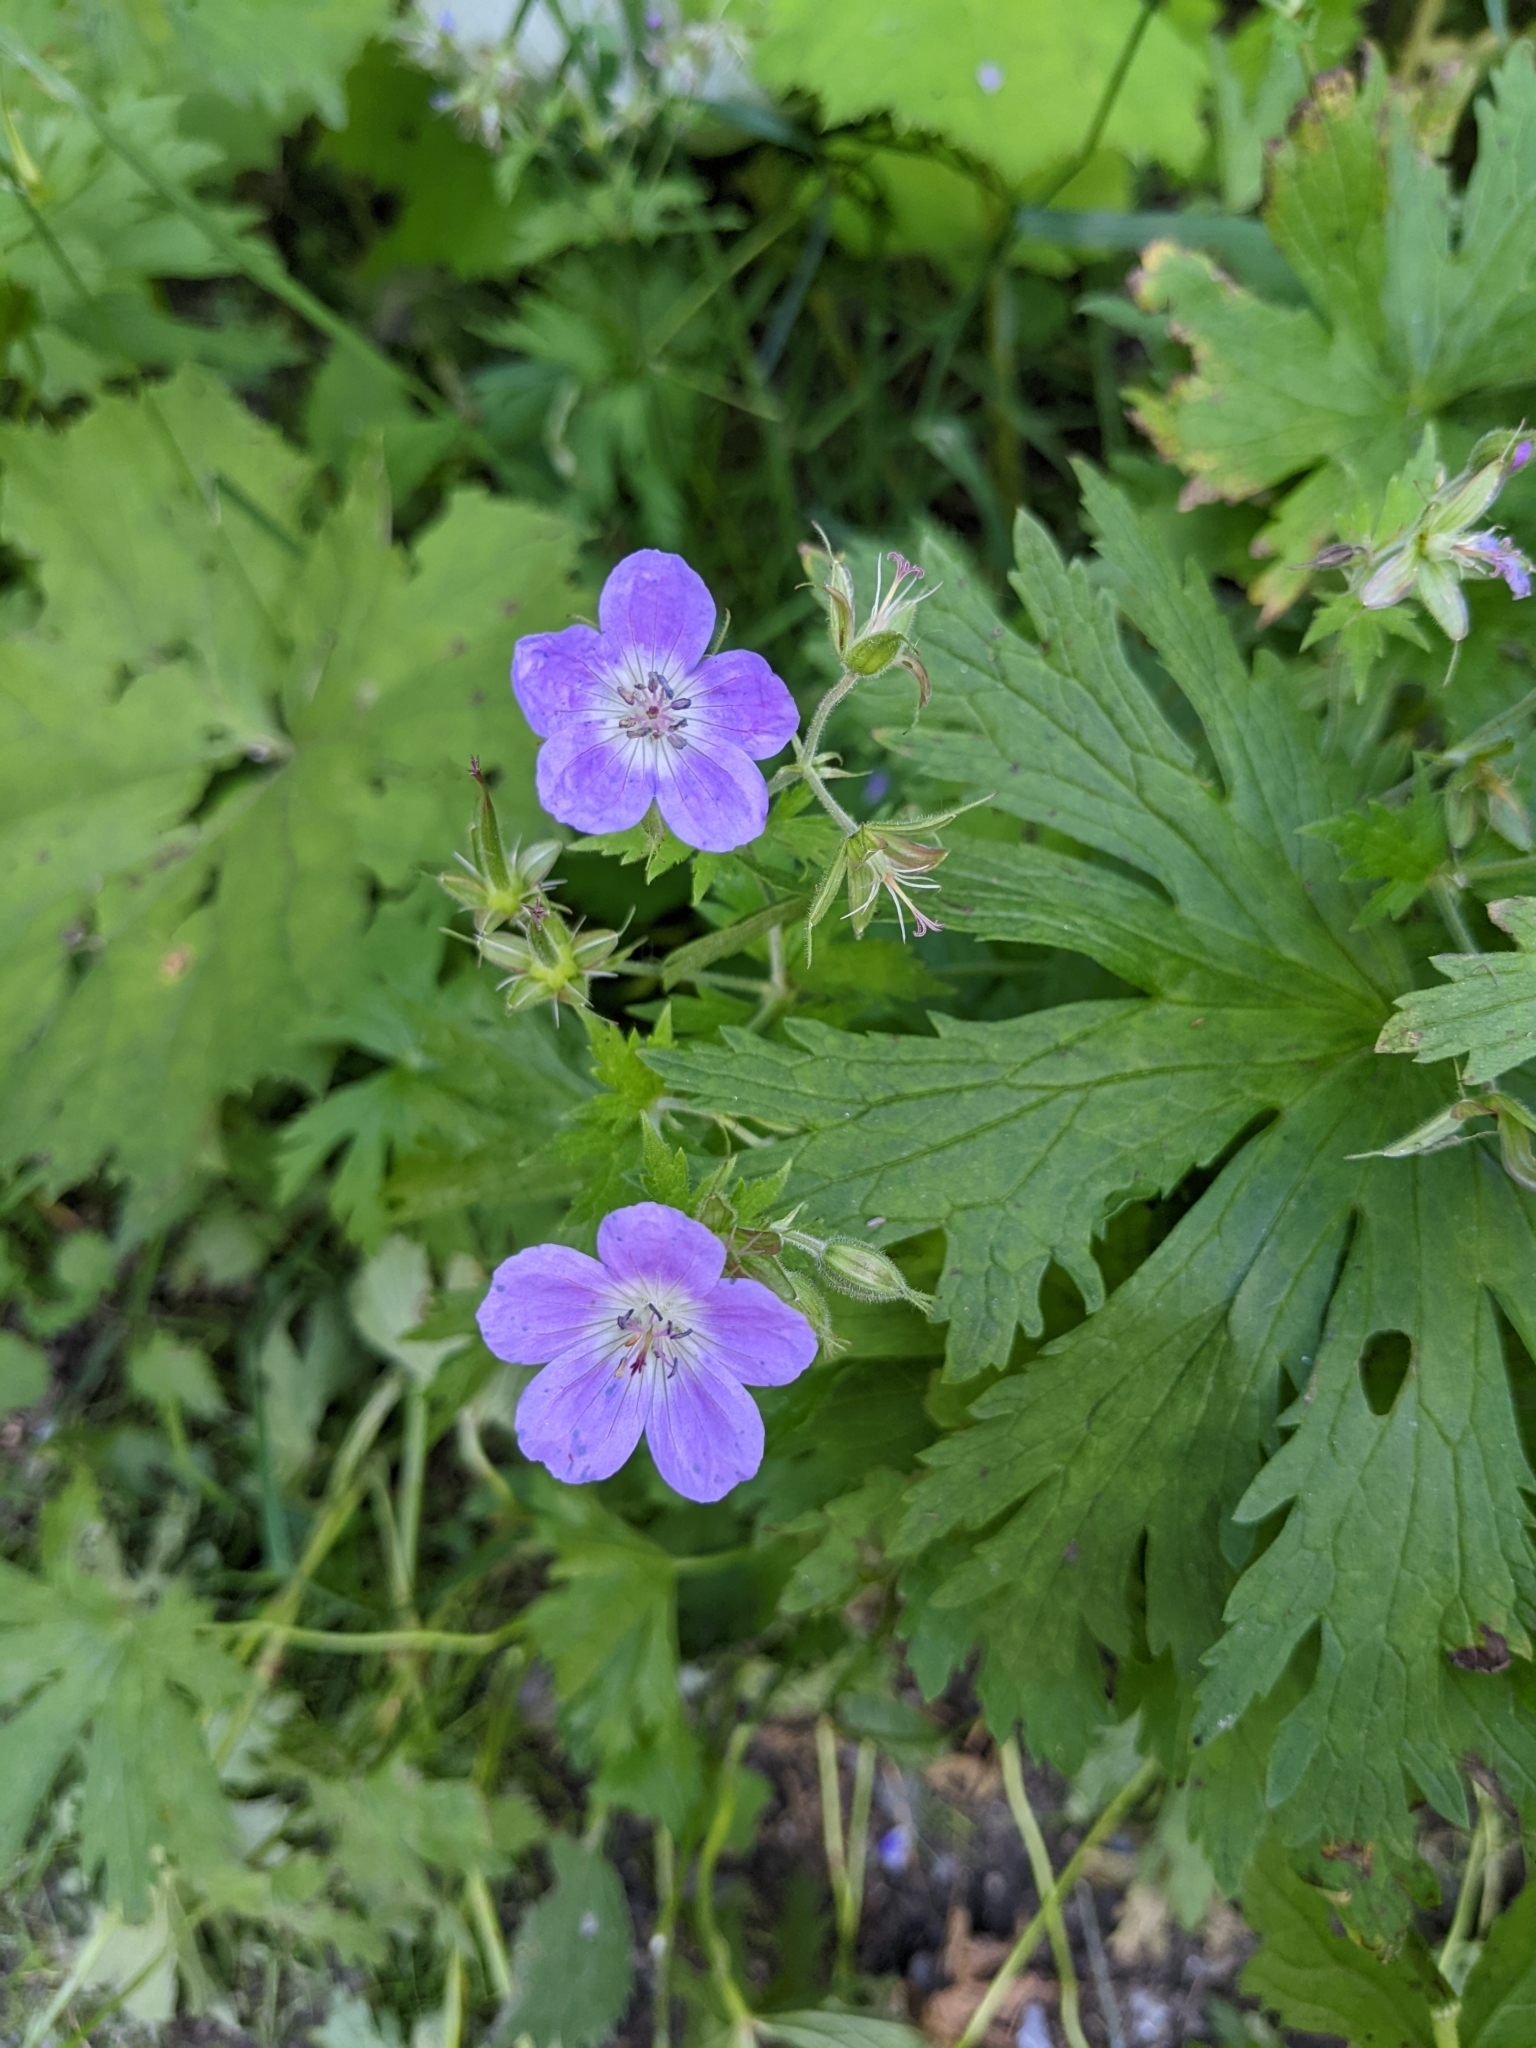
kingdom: Plantae
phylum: Tracheophyta
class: Magnoliopsida
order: Geraniales
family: Geraniaceae
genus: Geranium
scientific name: Geranium sylvaticum
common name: Wood crane's-bill
